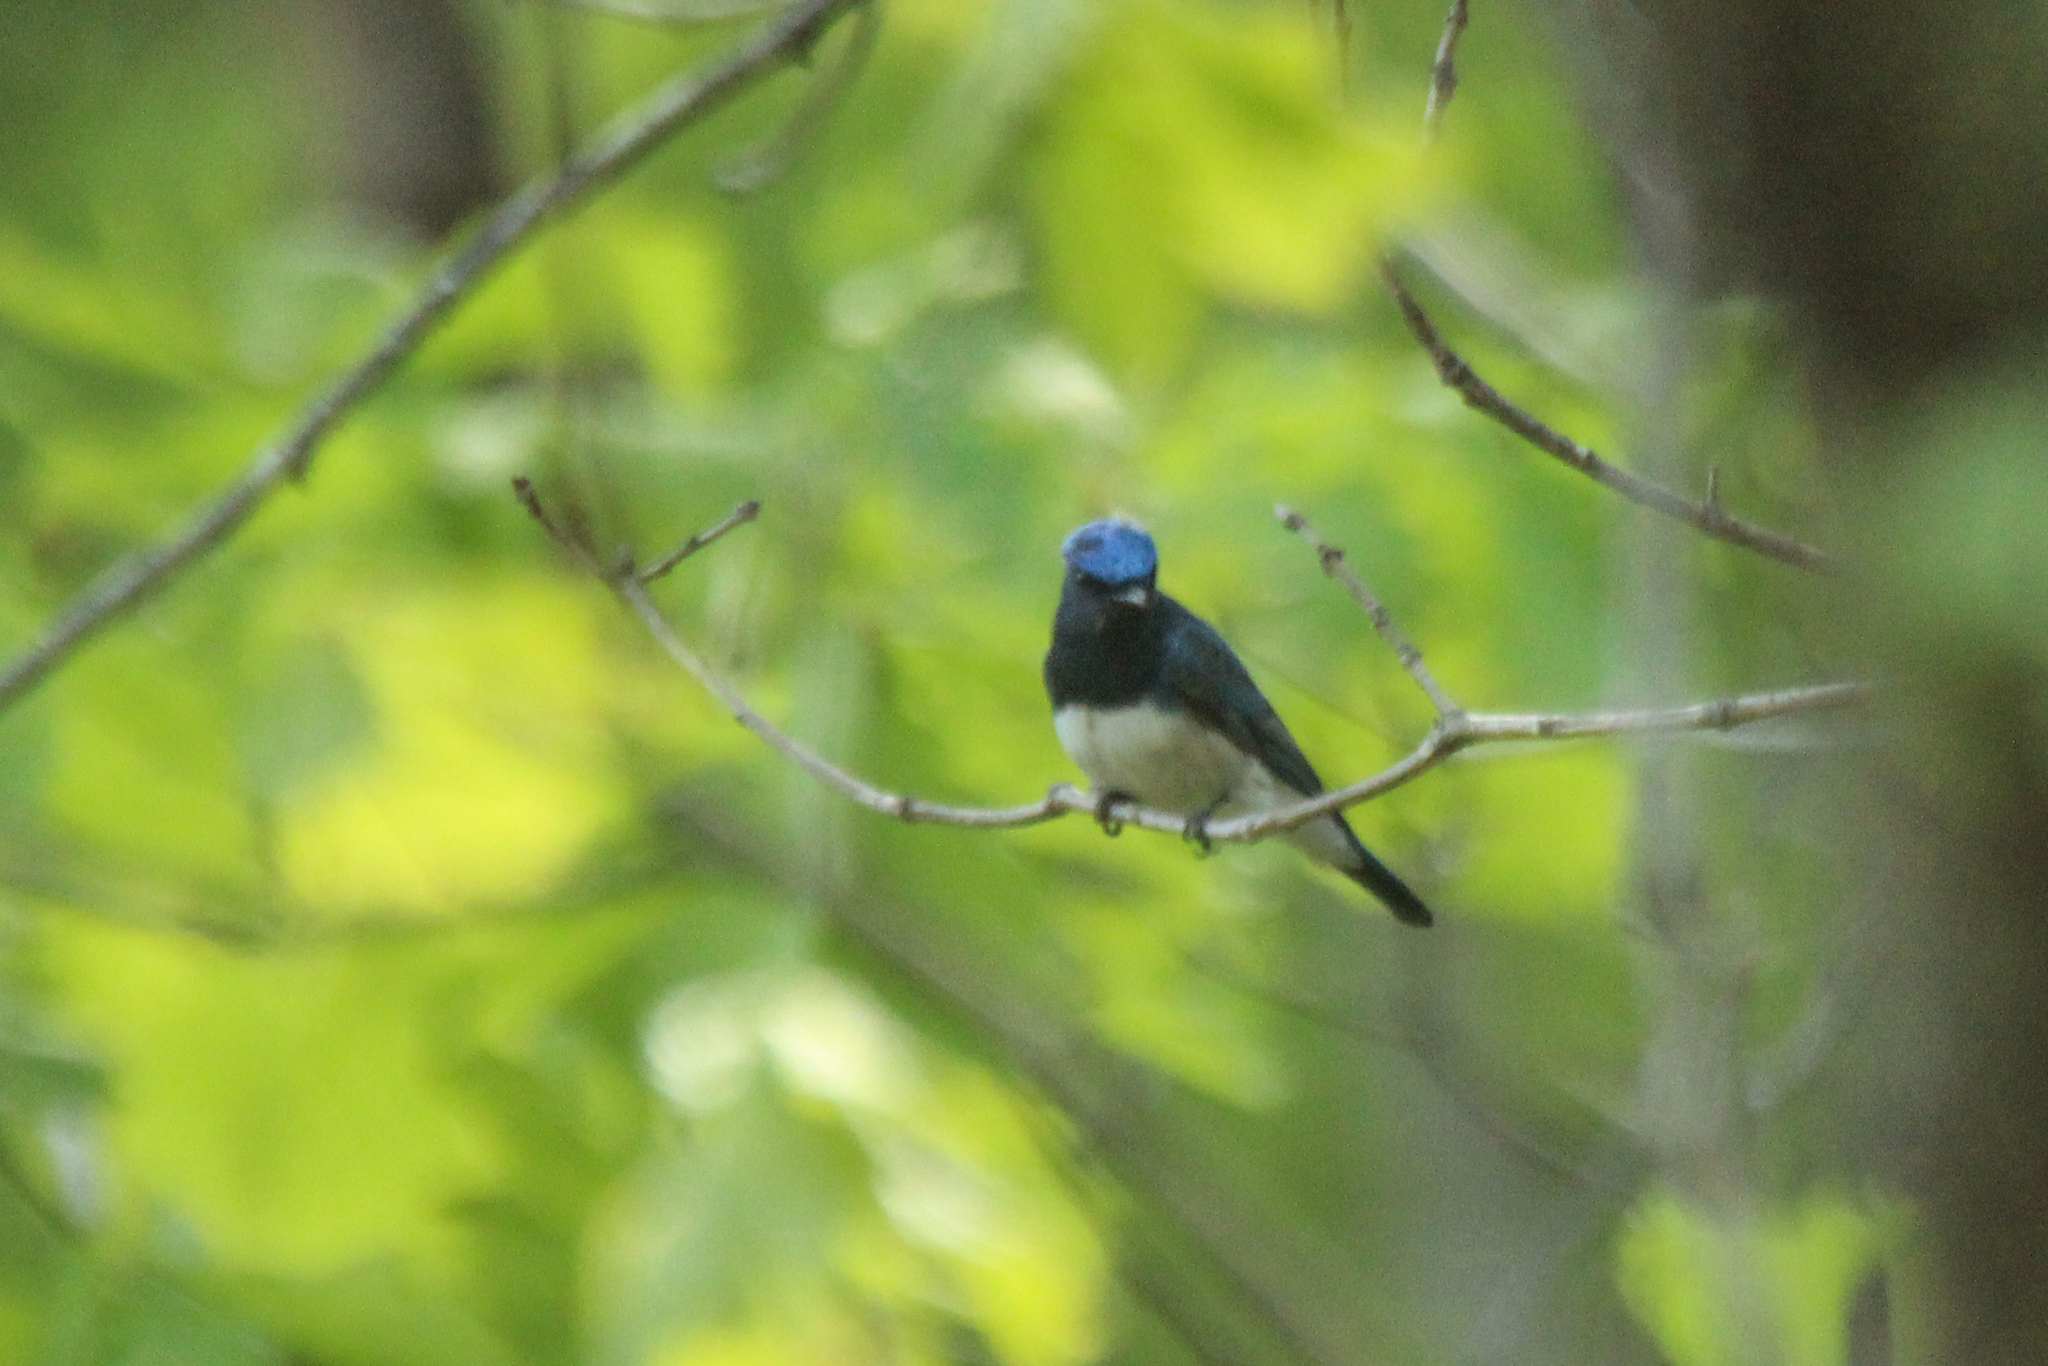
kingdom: Animalia
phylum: Chordata
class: Aves
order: Passeriformes
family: Muscicapidae
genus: Cyanoptila
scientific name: Cyanoptila cyanomelana
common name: Blue-and-white flycatcher
